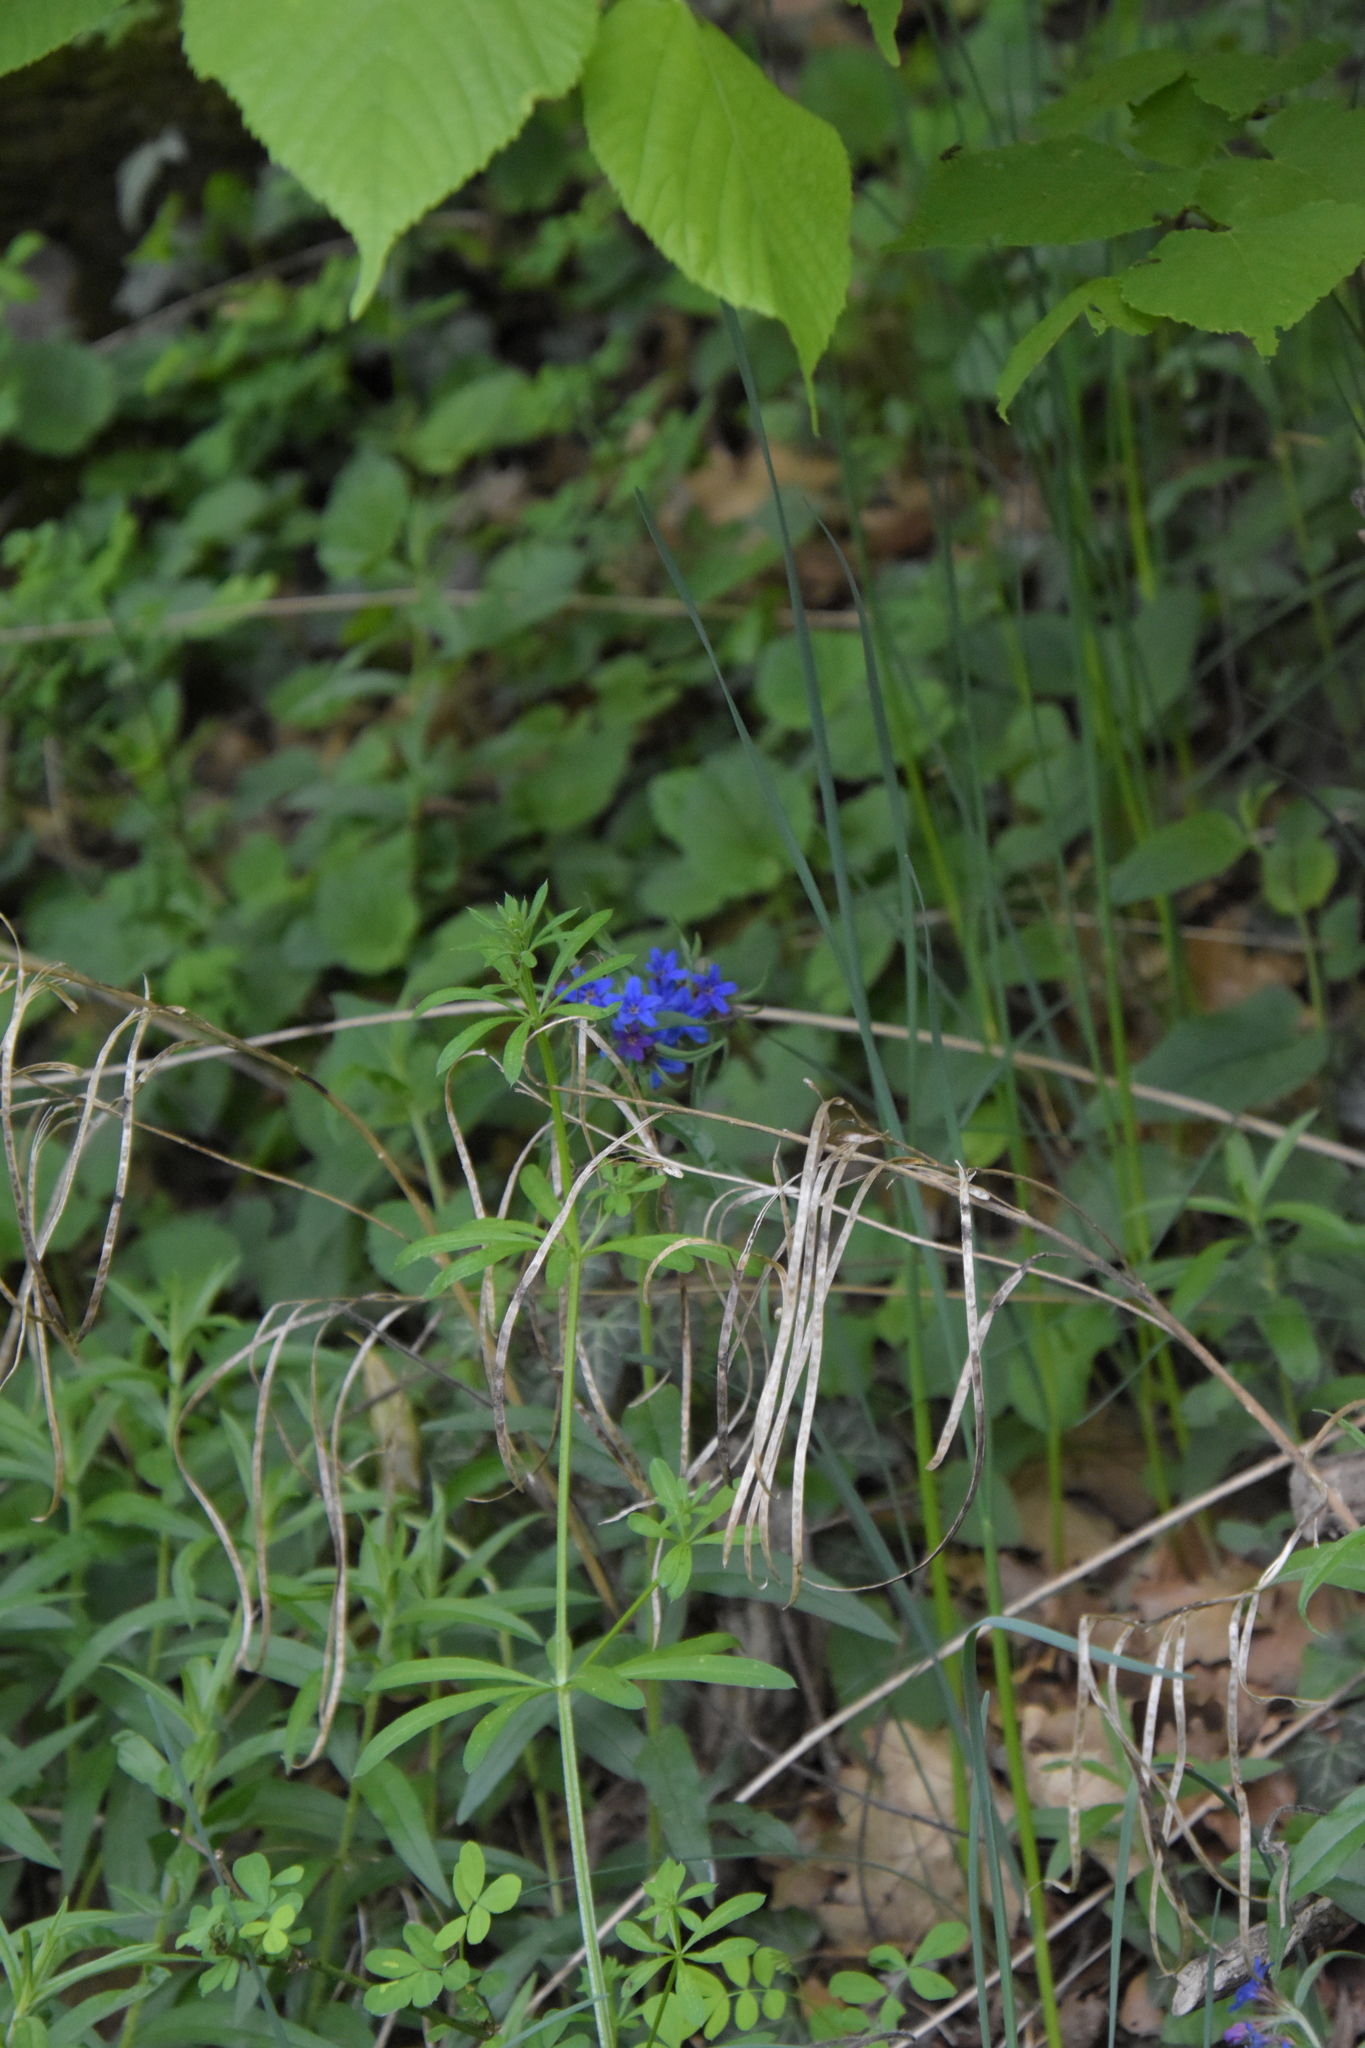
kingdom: Plantae
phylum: Tracheophyta
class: Magnoliopsida
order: Boraginales
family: Boraginaceae
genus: Aegonychon
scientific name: Aegonychon purpurocaeruleum
